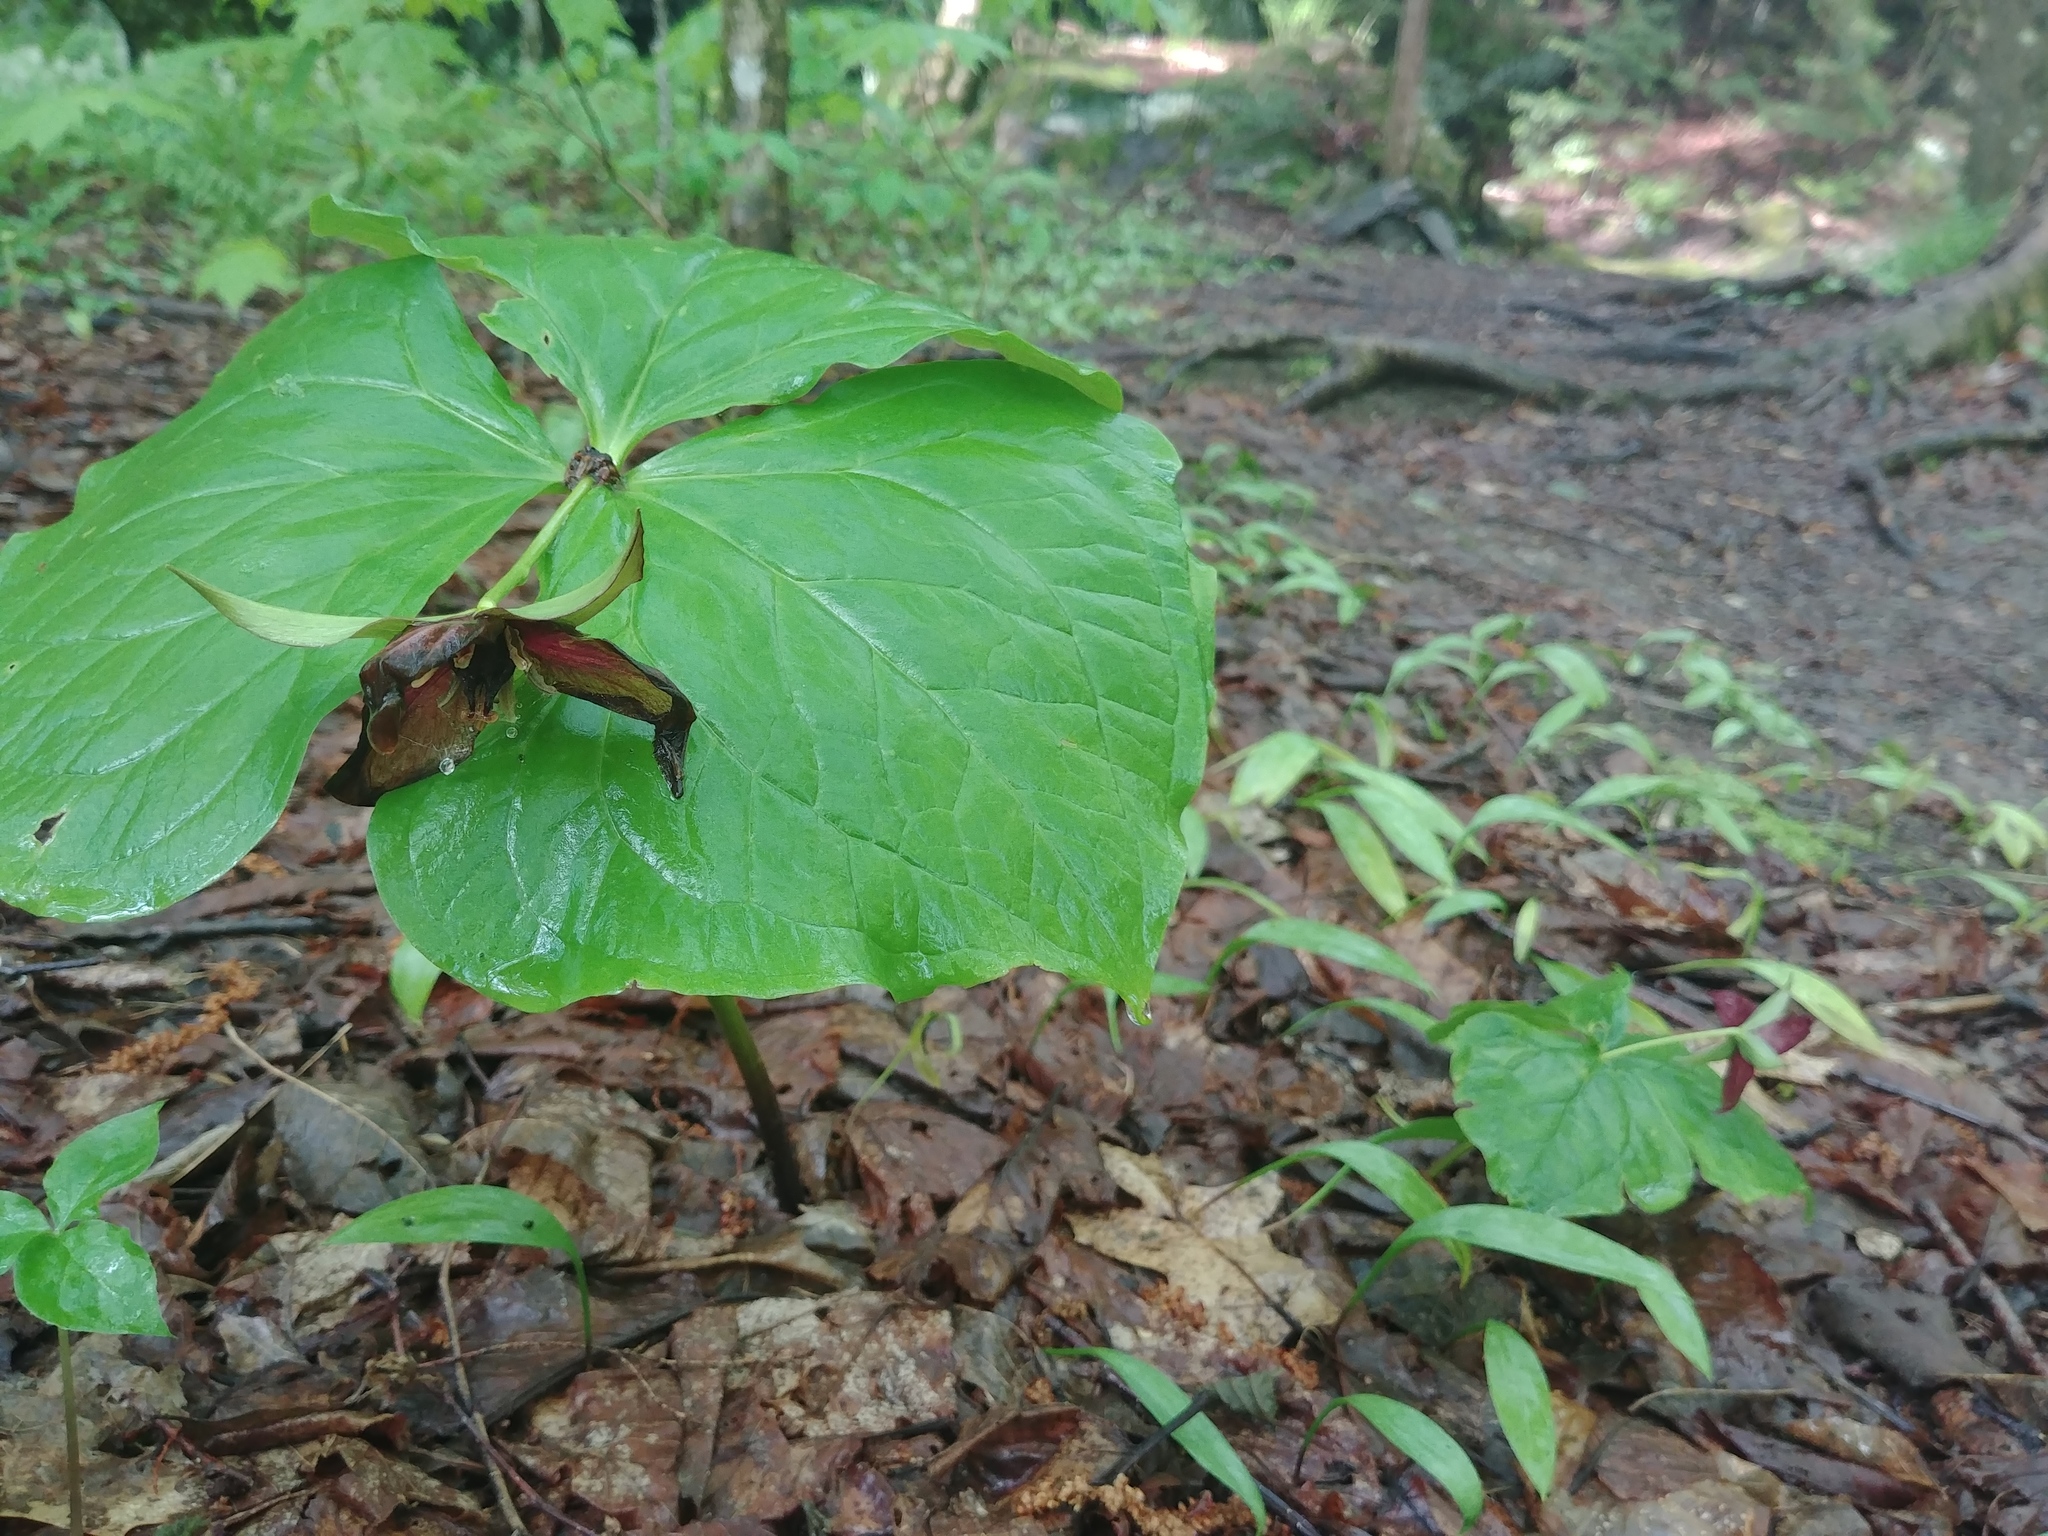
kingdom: Plantae
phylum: Tracheophyta
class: Liliopsida
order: Liliales
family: Melanthiaceae
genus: Trillium
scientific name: Trillium erectum
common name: Purple trillium
